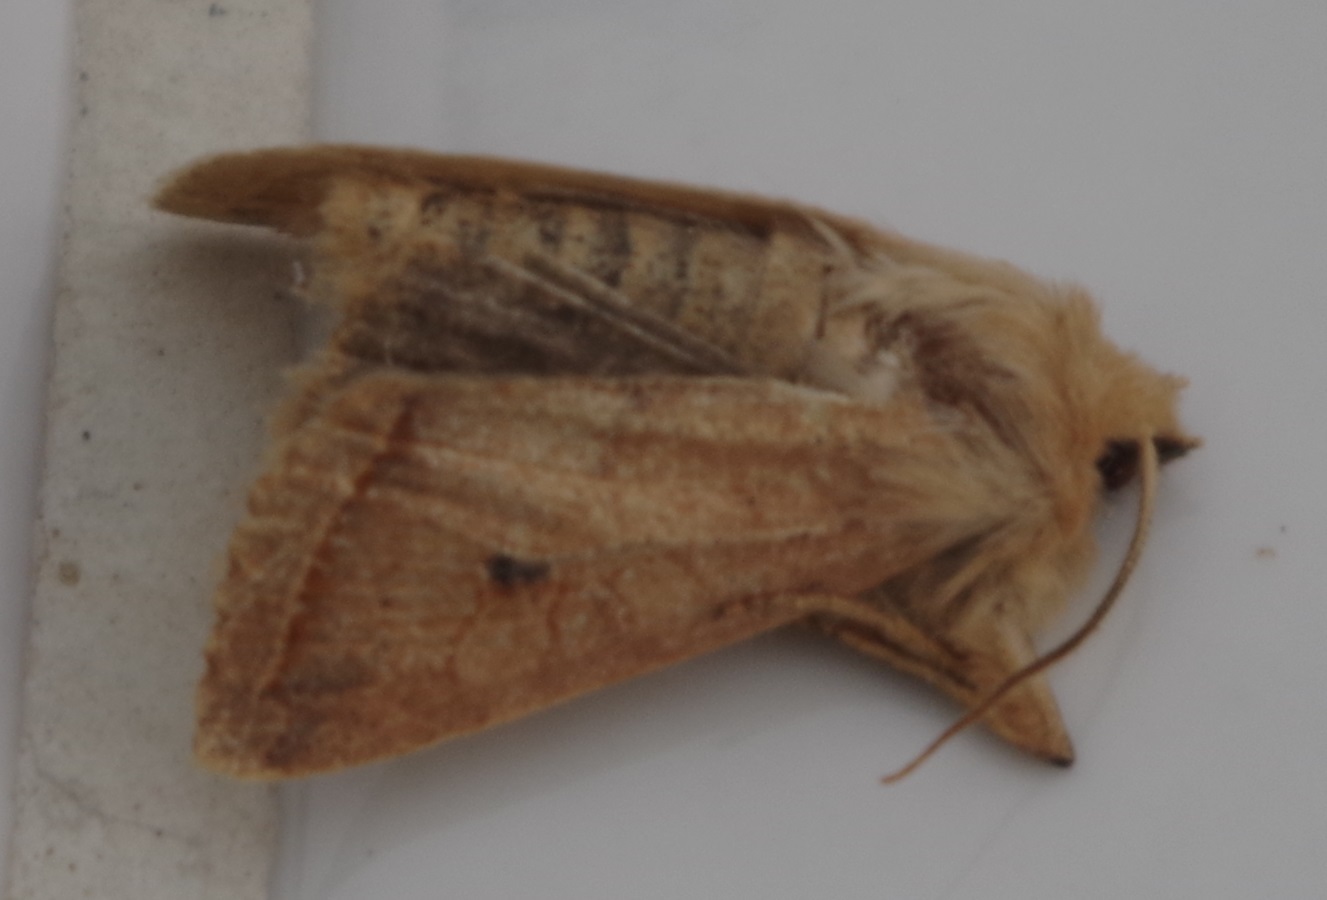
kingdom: Animalia
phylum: Arthropoda
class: Insecta
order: Lepidoptera
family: Noctuidae
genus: Agrochola
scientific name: Agrochola macilenta
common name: Yellow-line quaker
